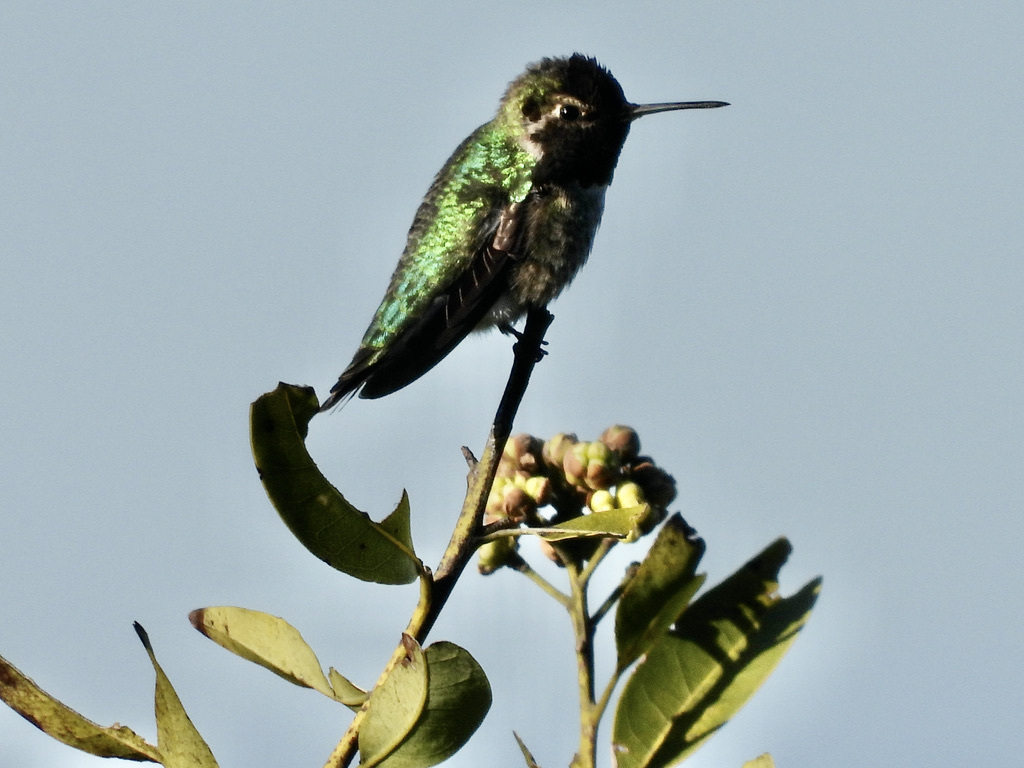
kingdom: Animalia
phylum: Chordata
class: Aves
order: Apodiformes
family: Trochilidae
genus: Calypte
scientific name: Calypte anna
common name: Anna's hummingbird
